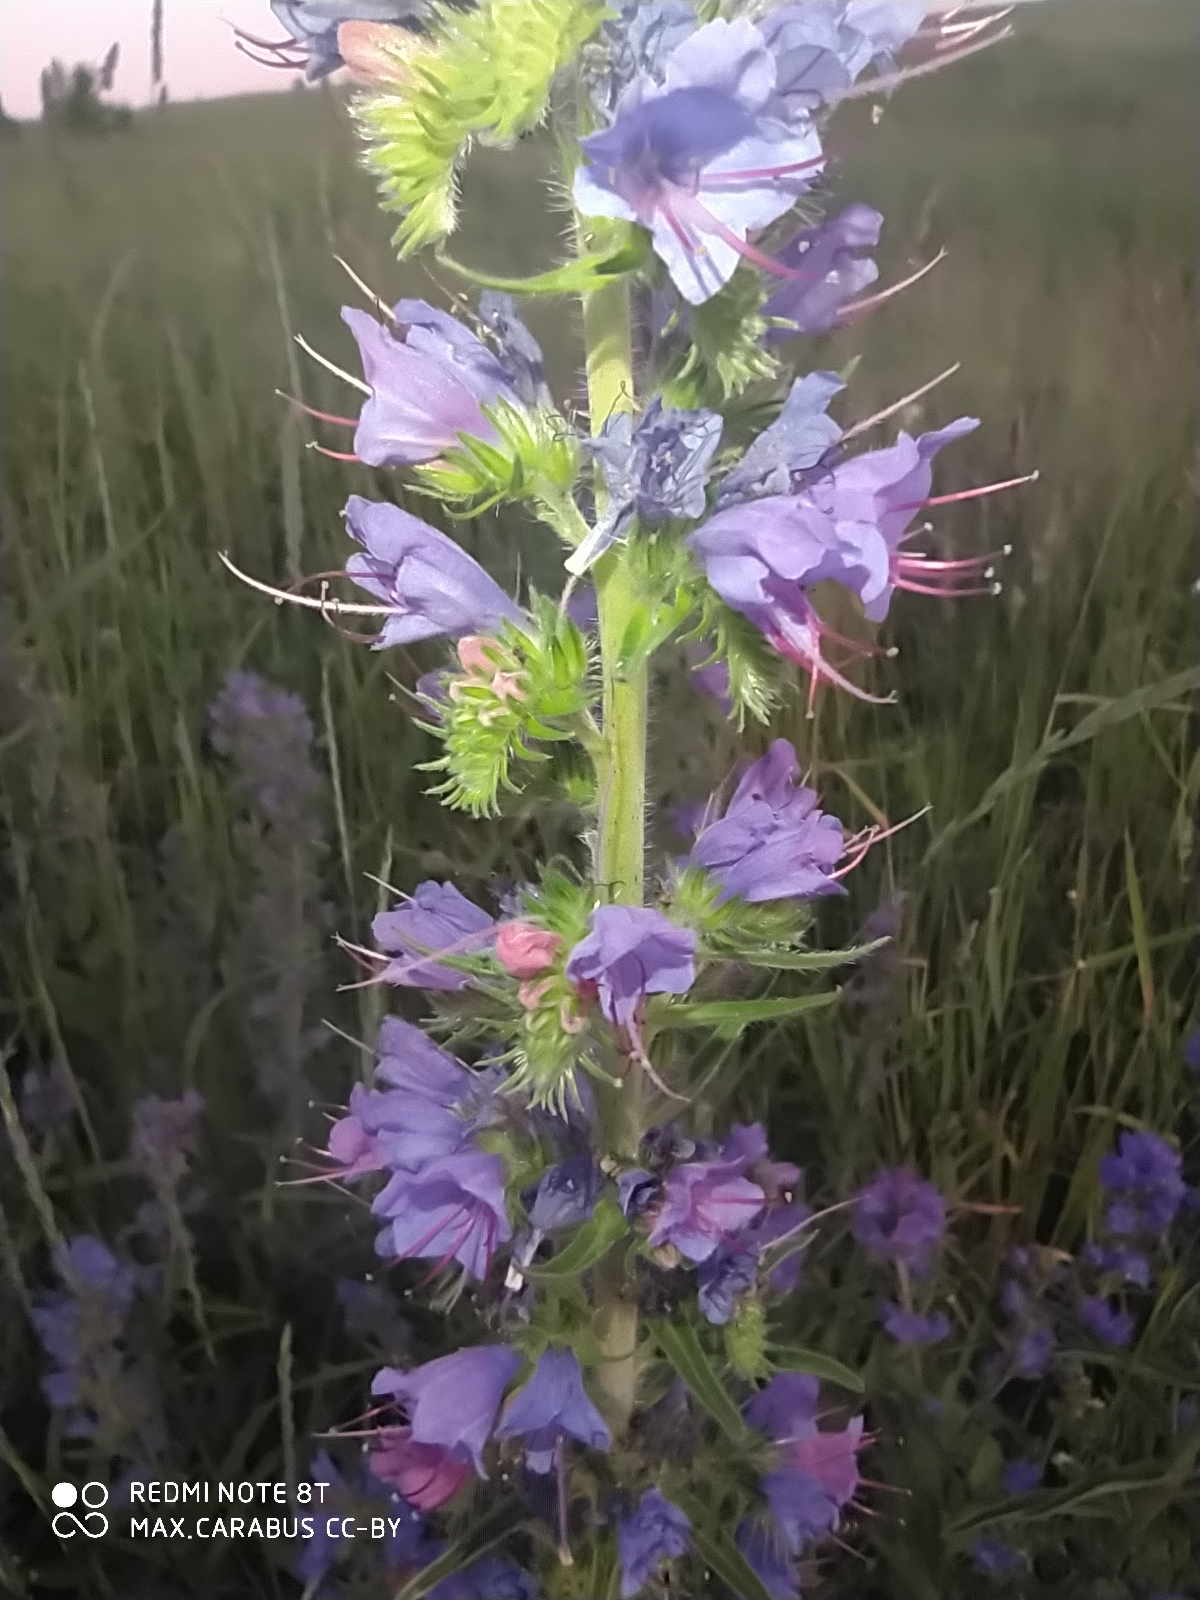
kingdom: Plantae
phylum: Tracheophyta
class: Magnoliopsida
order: Boraginales
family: Boraginaceae
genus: Echium
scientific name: Echium vulgare
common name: Common viper's bugloss
